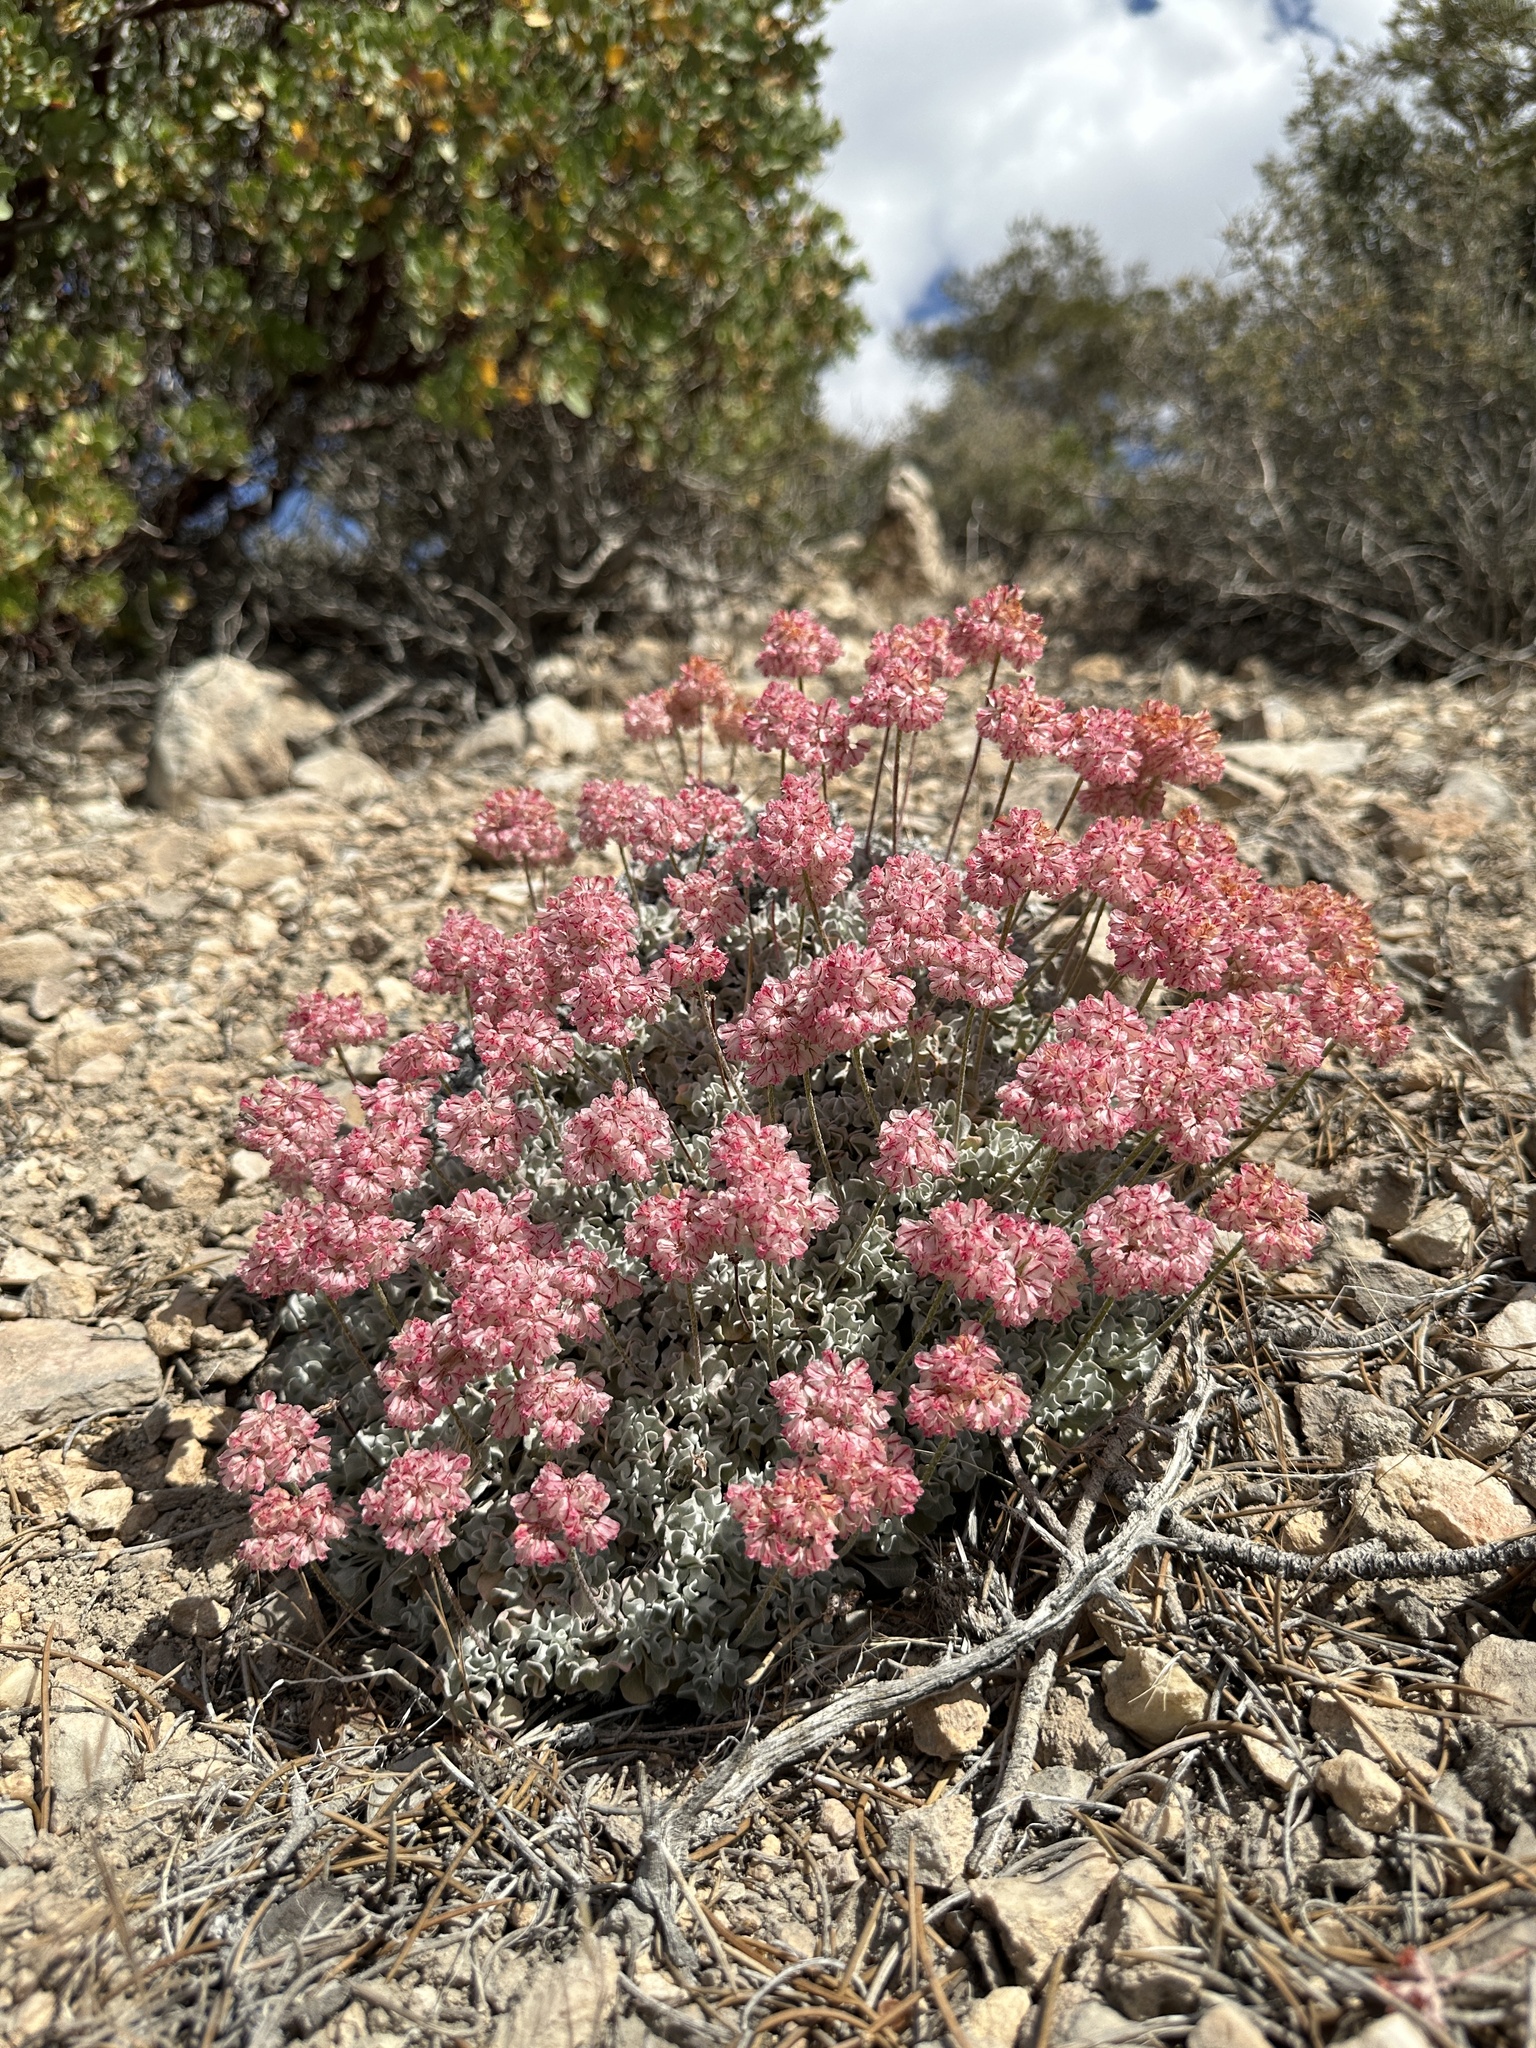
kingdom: Plantae
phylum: Tracheophyta
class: Magnoliopsida
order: Caryophyllales
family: Polygonaceae
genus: Eriogonum
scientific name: Eriogonum ovalifolium
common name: Cushion buckwheat
